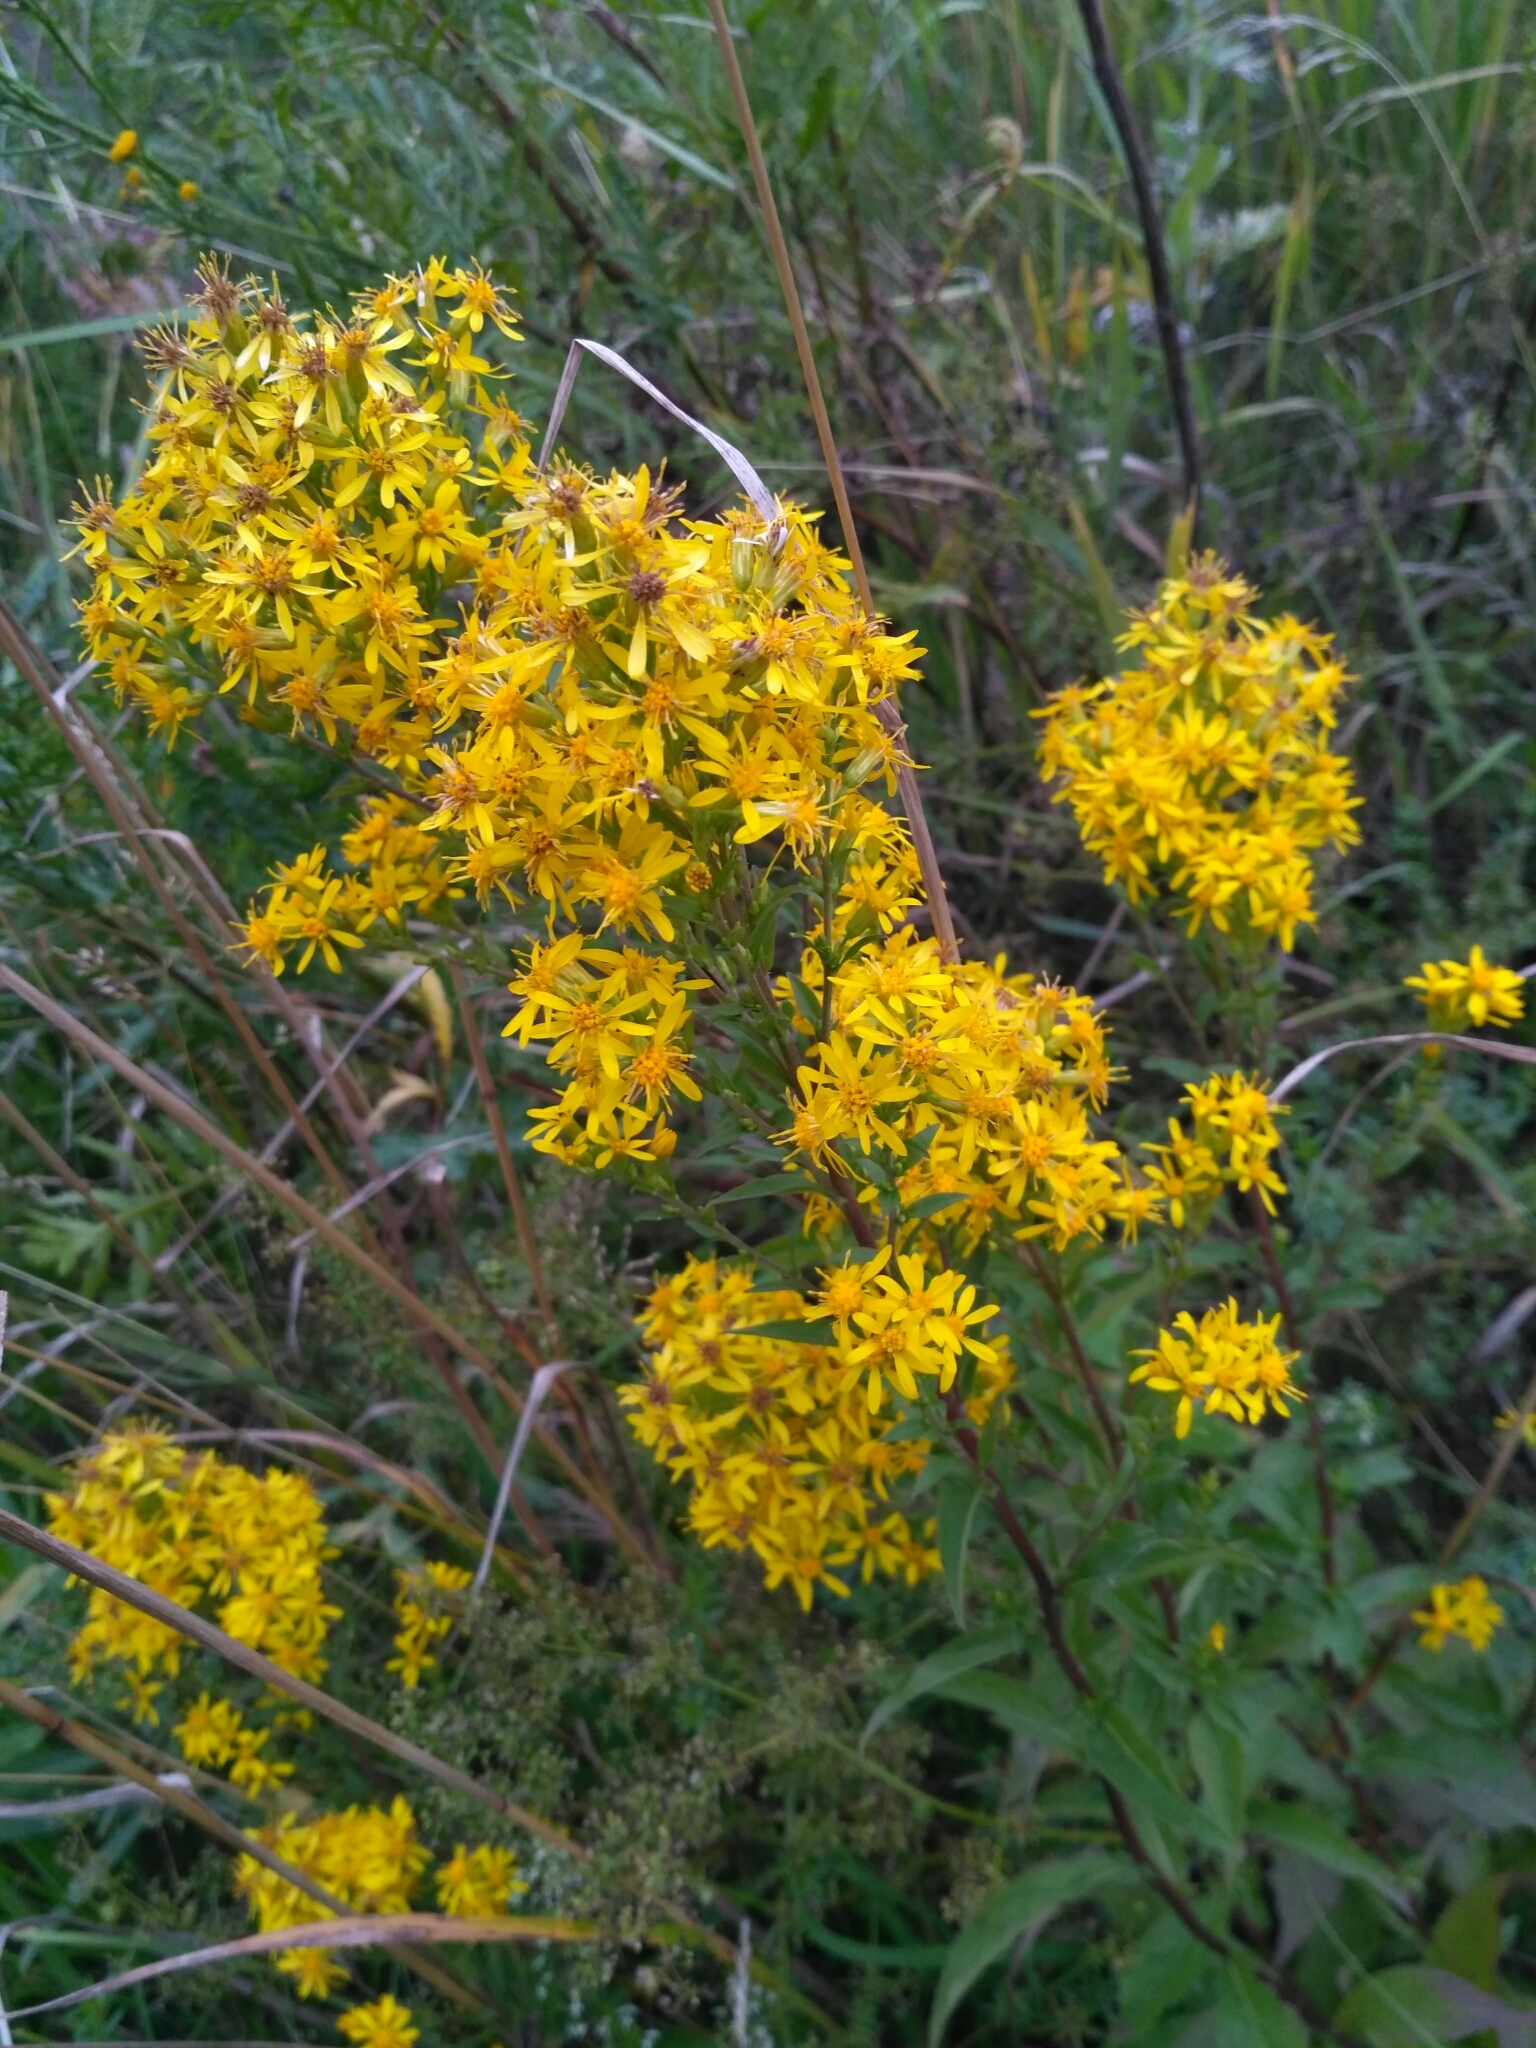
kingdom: Plantae
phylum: Tracheophyta
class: Magnoliopsida
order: Asterales
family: Asteraceae
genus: Solidago
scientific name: Solidago virgaurea
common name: Goldenrod
